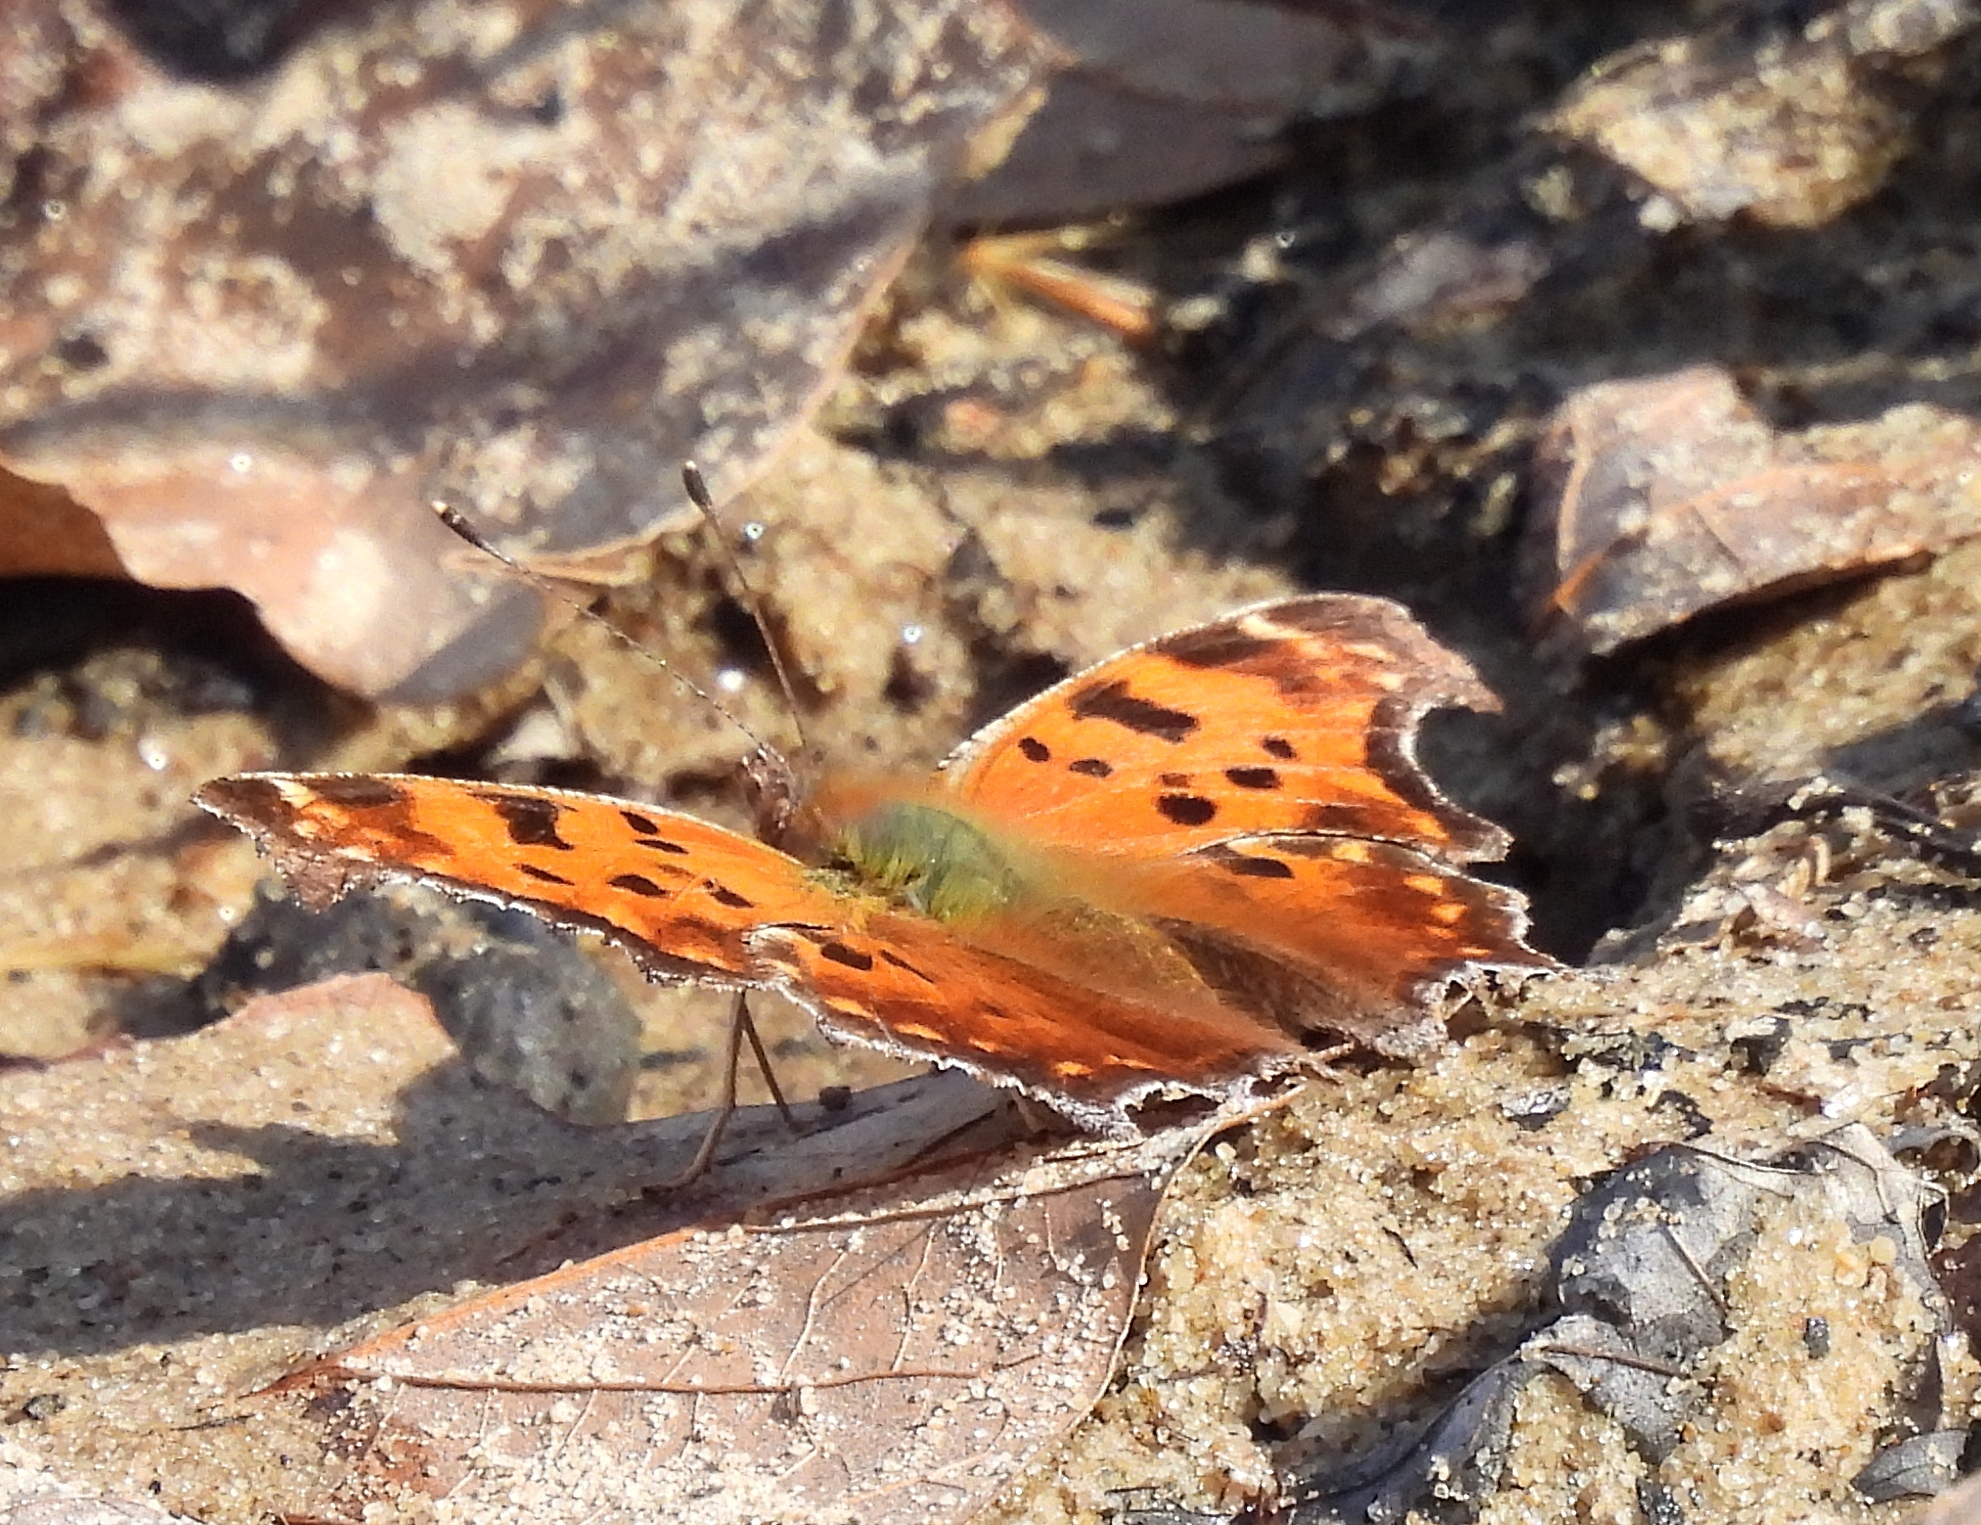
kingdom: Animalia
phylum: Arthropoda
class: Insecta
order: Lepidoptera
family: Nymphalidae
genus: Polygonia
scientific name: Polygonia comma
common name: Eastern comma
